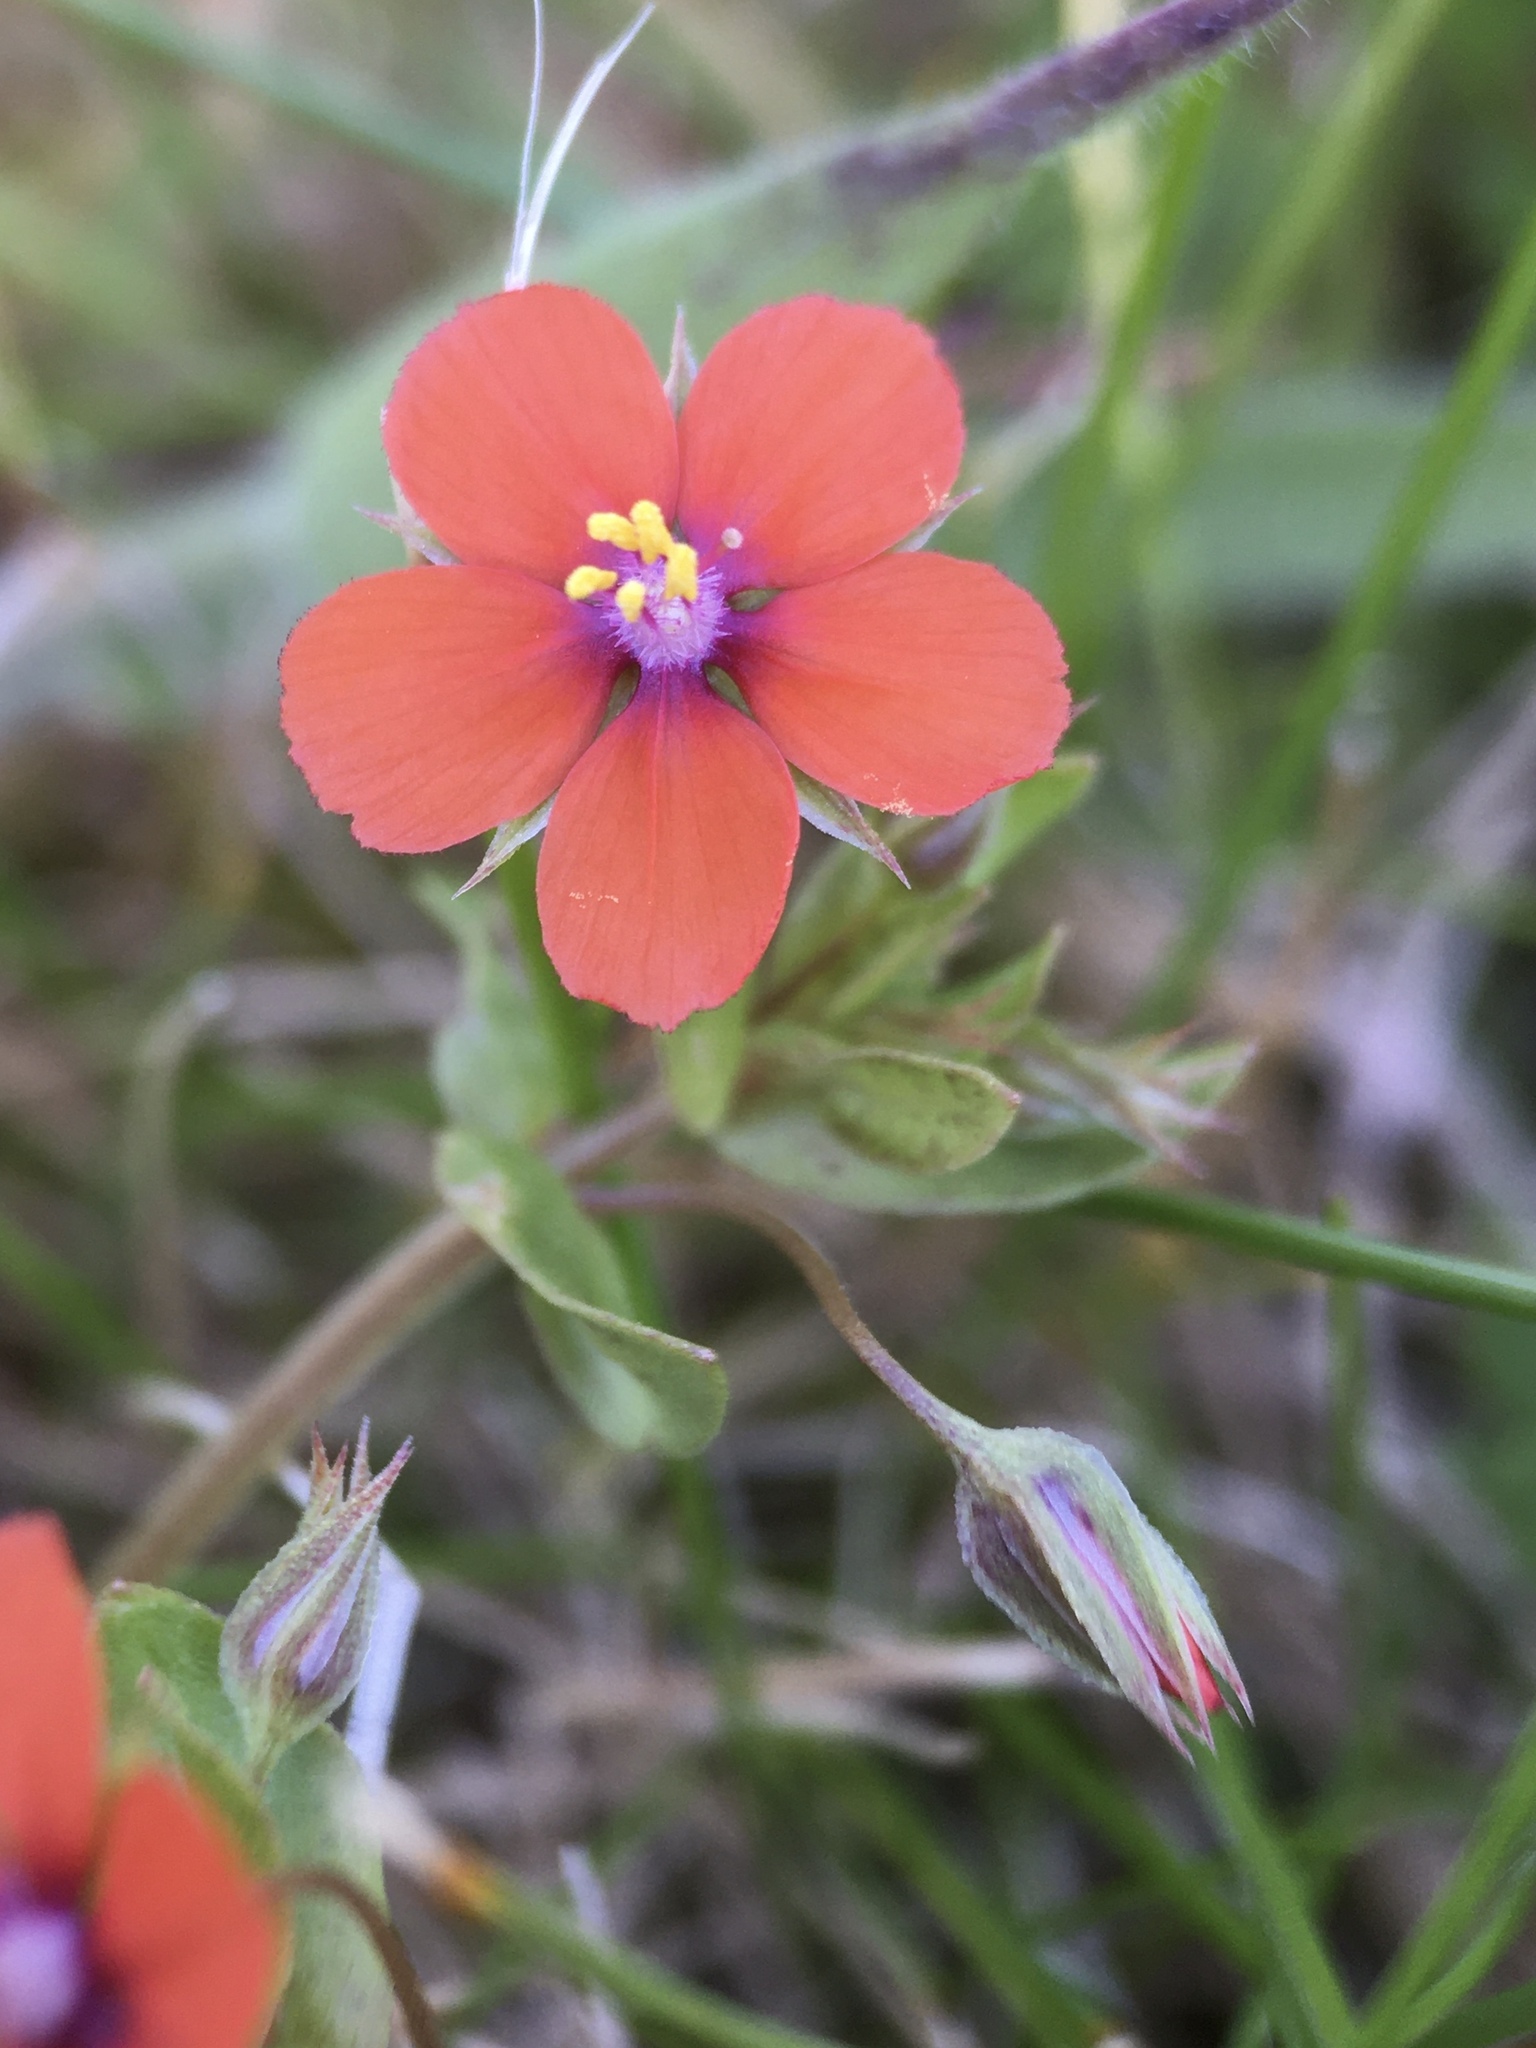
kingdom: Plantae
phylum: Tracheophyta
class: Magnoliopsida
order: Ericales
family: Primulaceae
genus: Lysimachia
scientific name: Lysimachia arvensis
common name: Scarlet pimpernel
